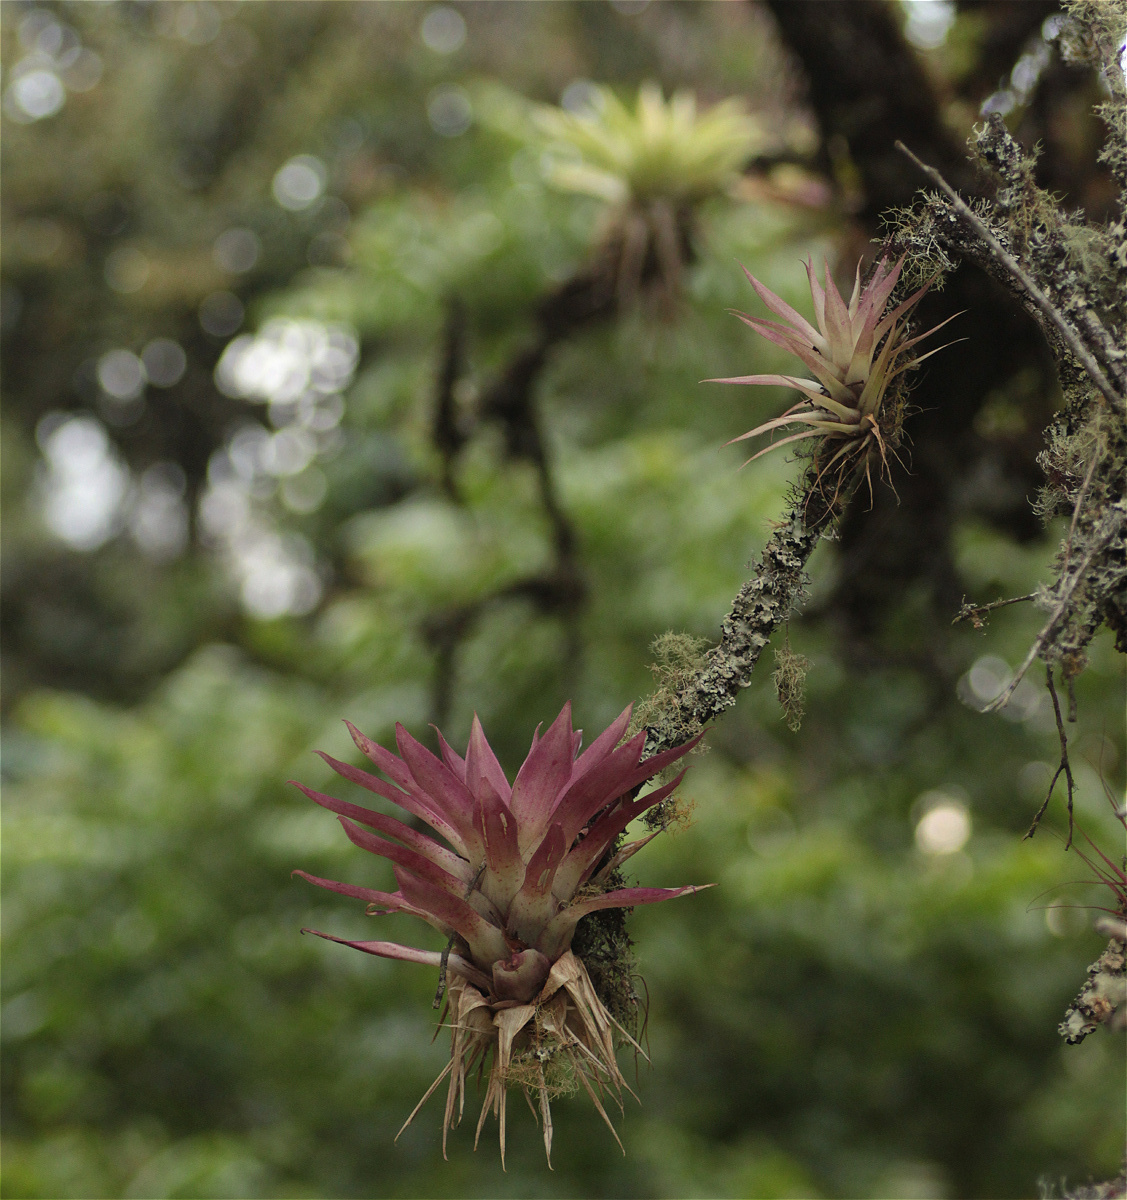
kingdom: Plantae
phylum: Tracheophyta
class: Liliopsida
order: Poales
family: Bromeliaceae
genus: Tillandsia
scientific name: Tillandsia biflora
